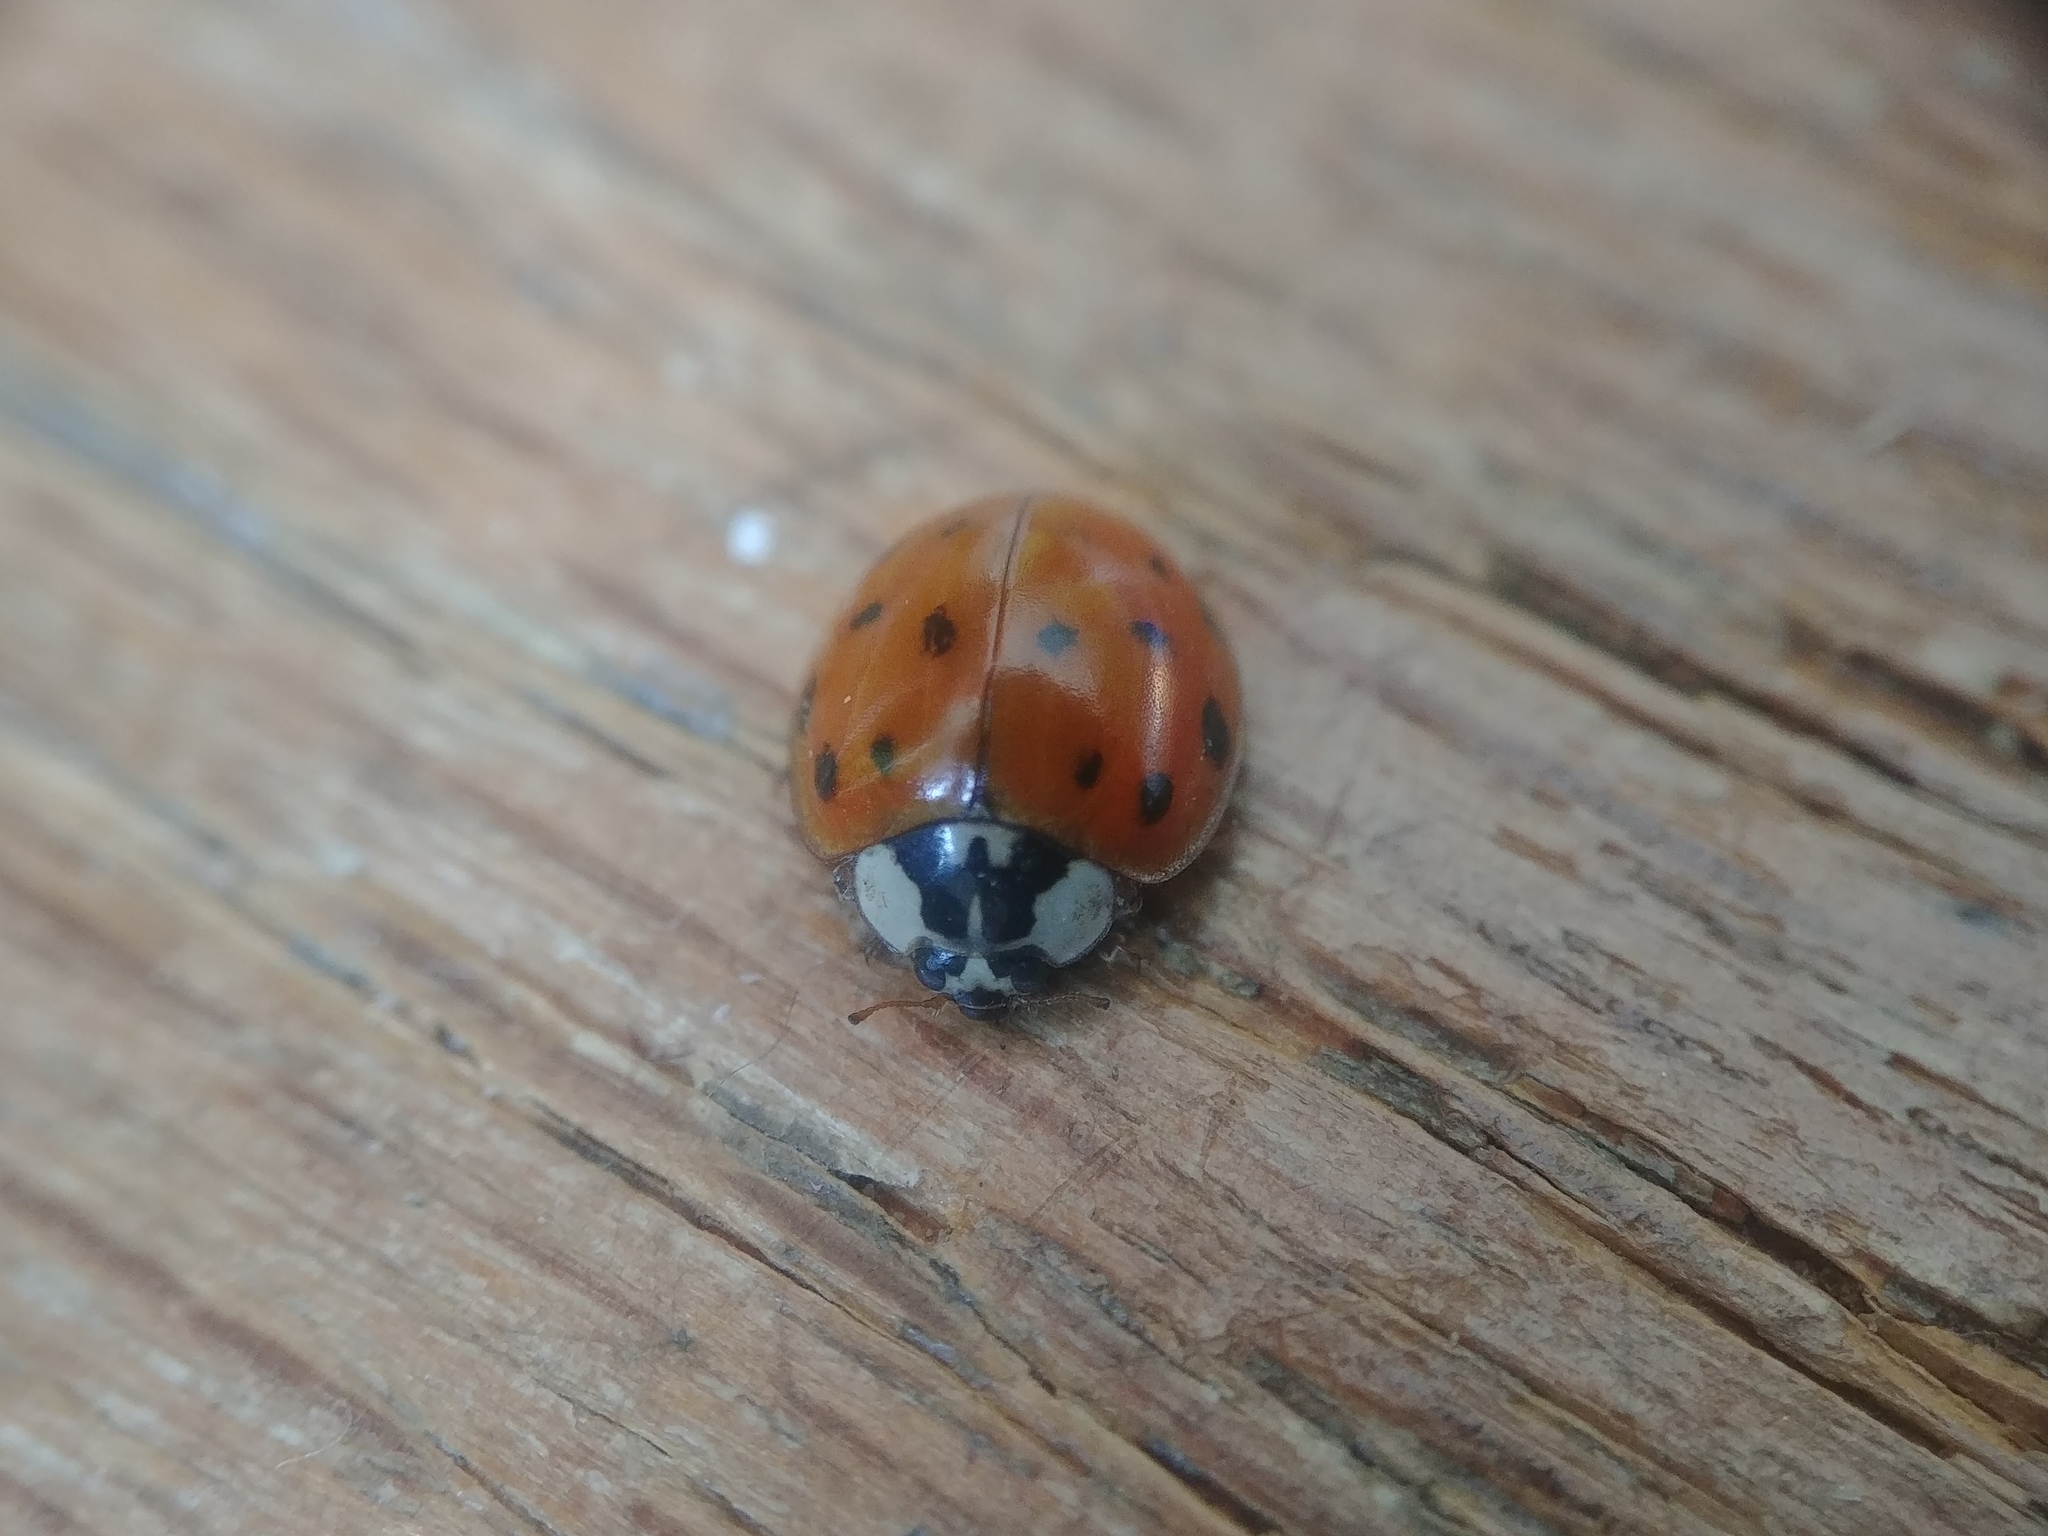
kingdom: Animalia
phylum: Arthropoda
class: Insecta
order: Coleoptera
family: Coccinellidae
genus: Harmonia
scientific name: Harmonia axyridis
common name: Harlequin ladybird
